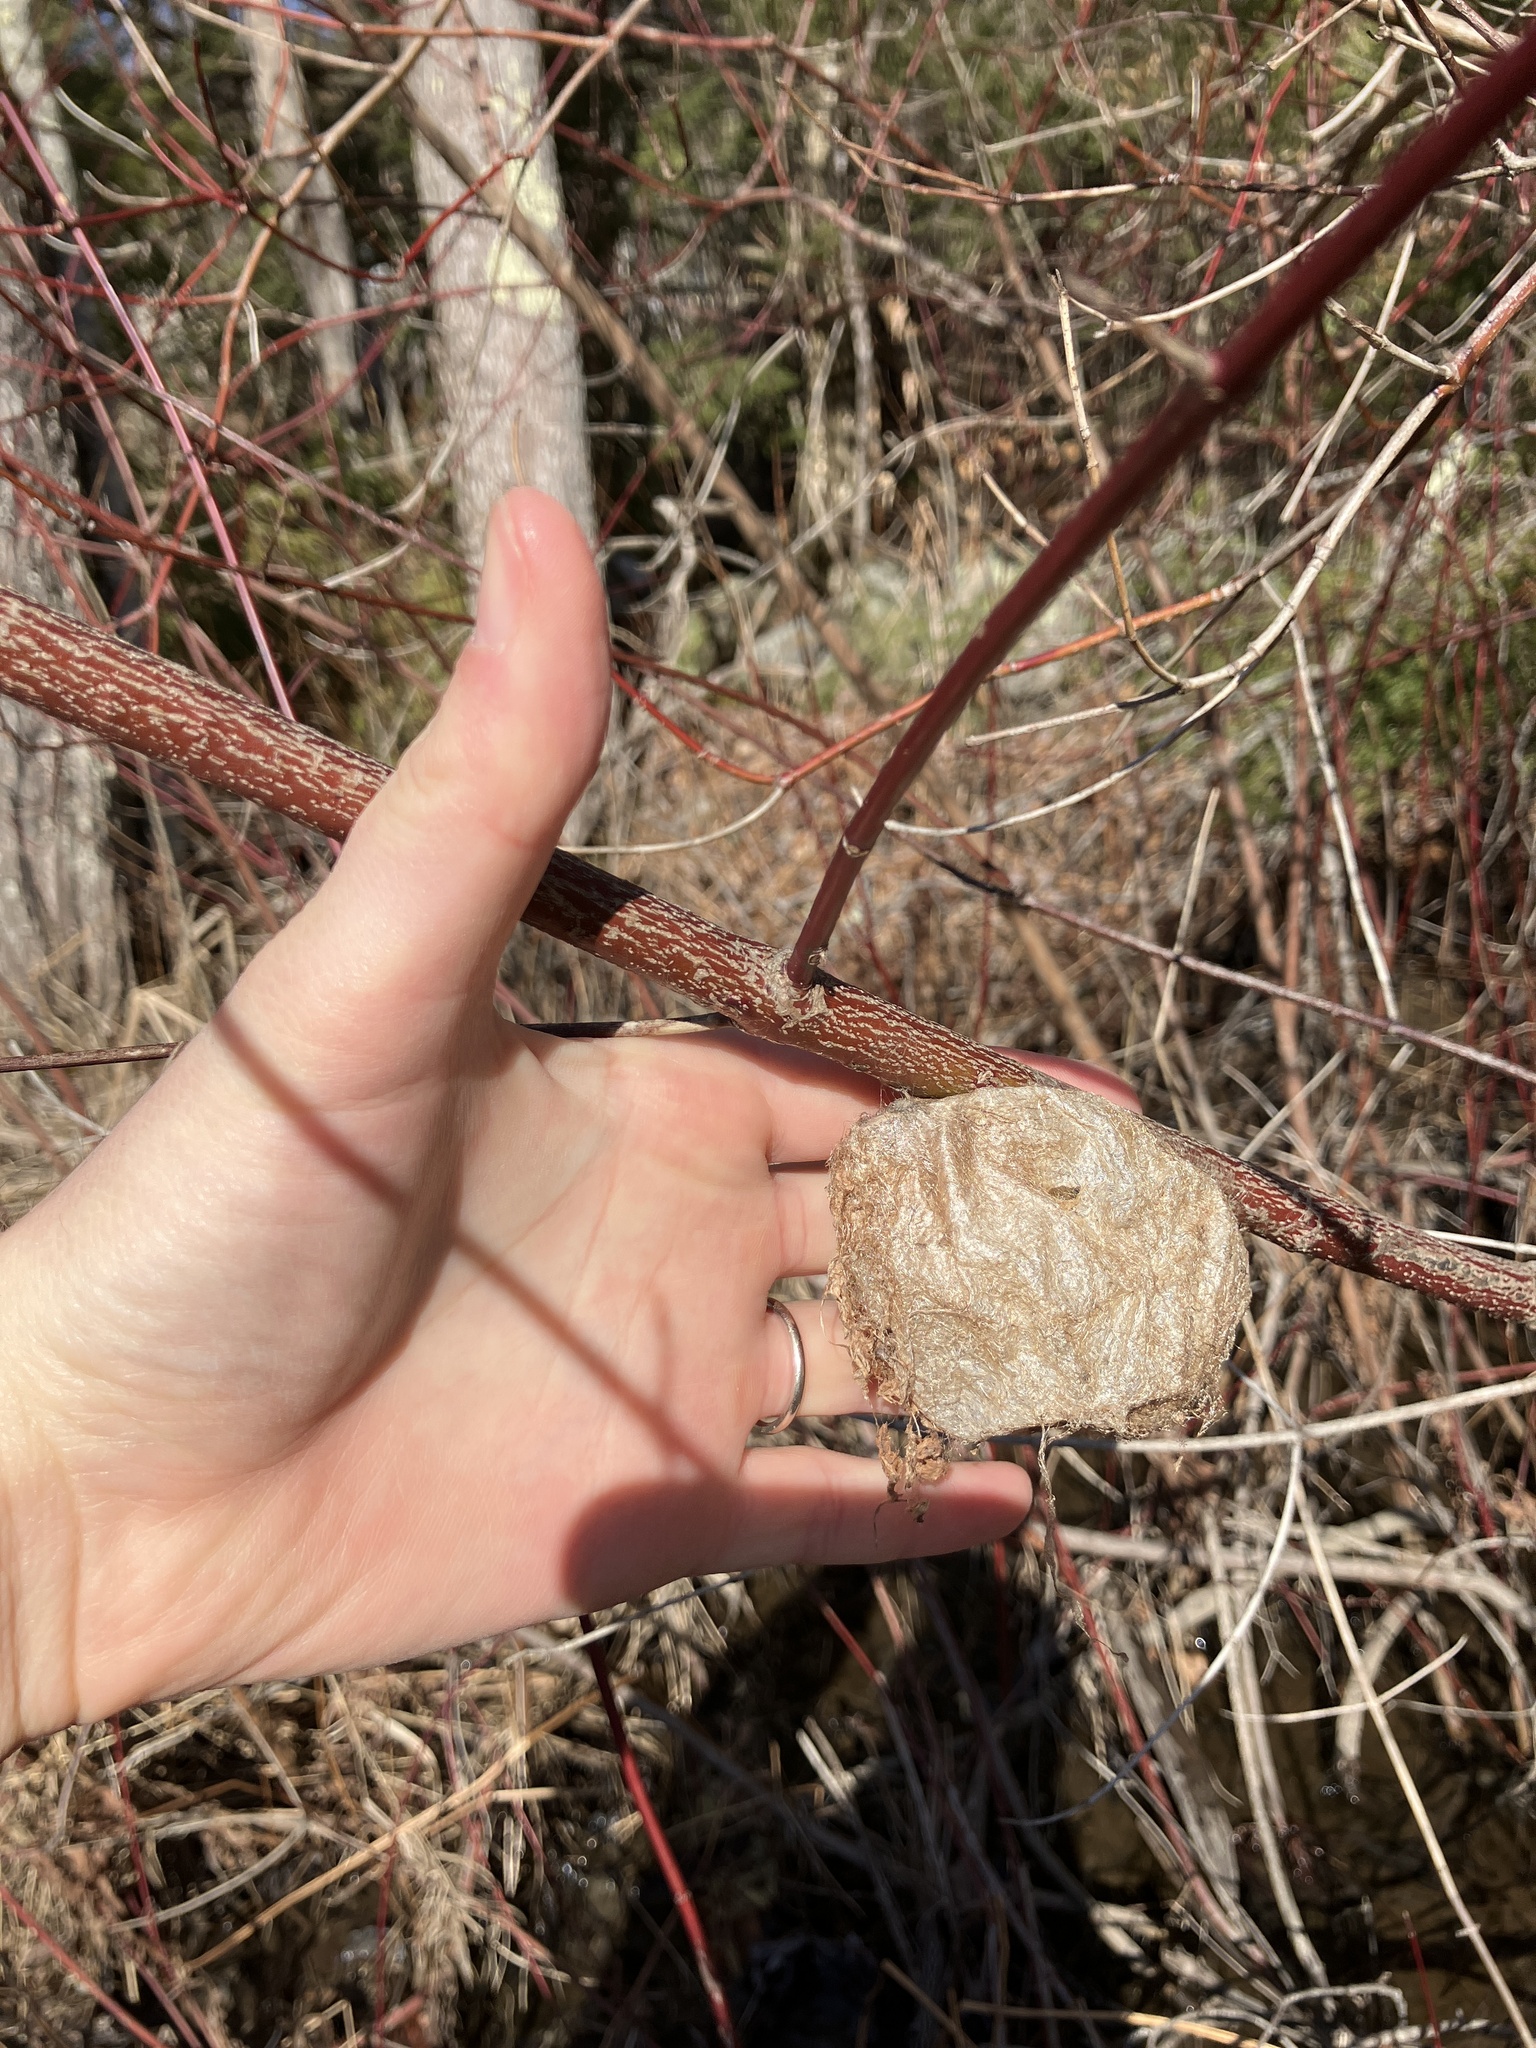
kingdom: Animalia
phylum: Arthropoda
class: Insecta
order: Lepidoptera
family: Saturniidae
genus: Hyalophora
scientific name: Hyalophora cecropia
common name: Cecropia silkmoth
